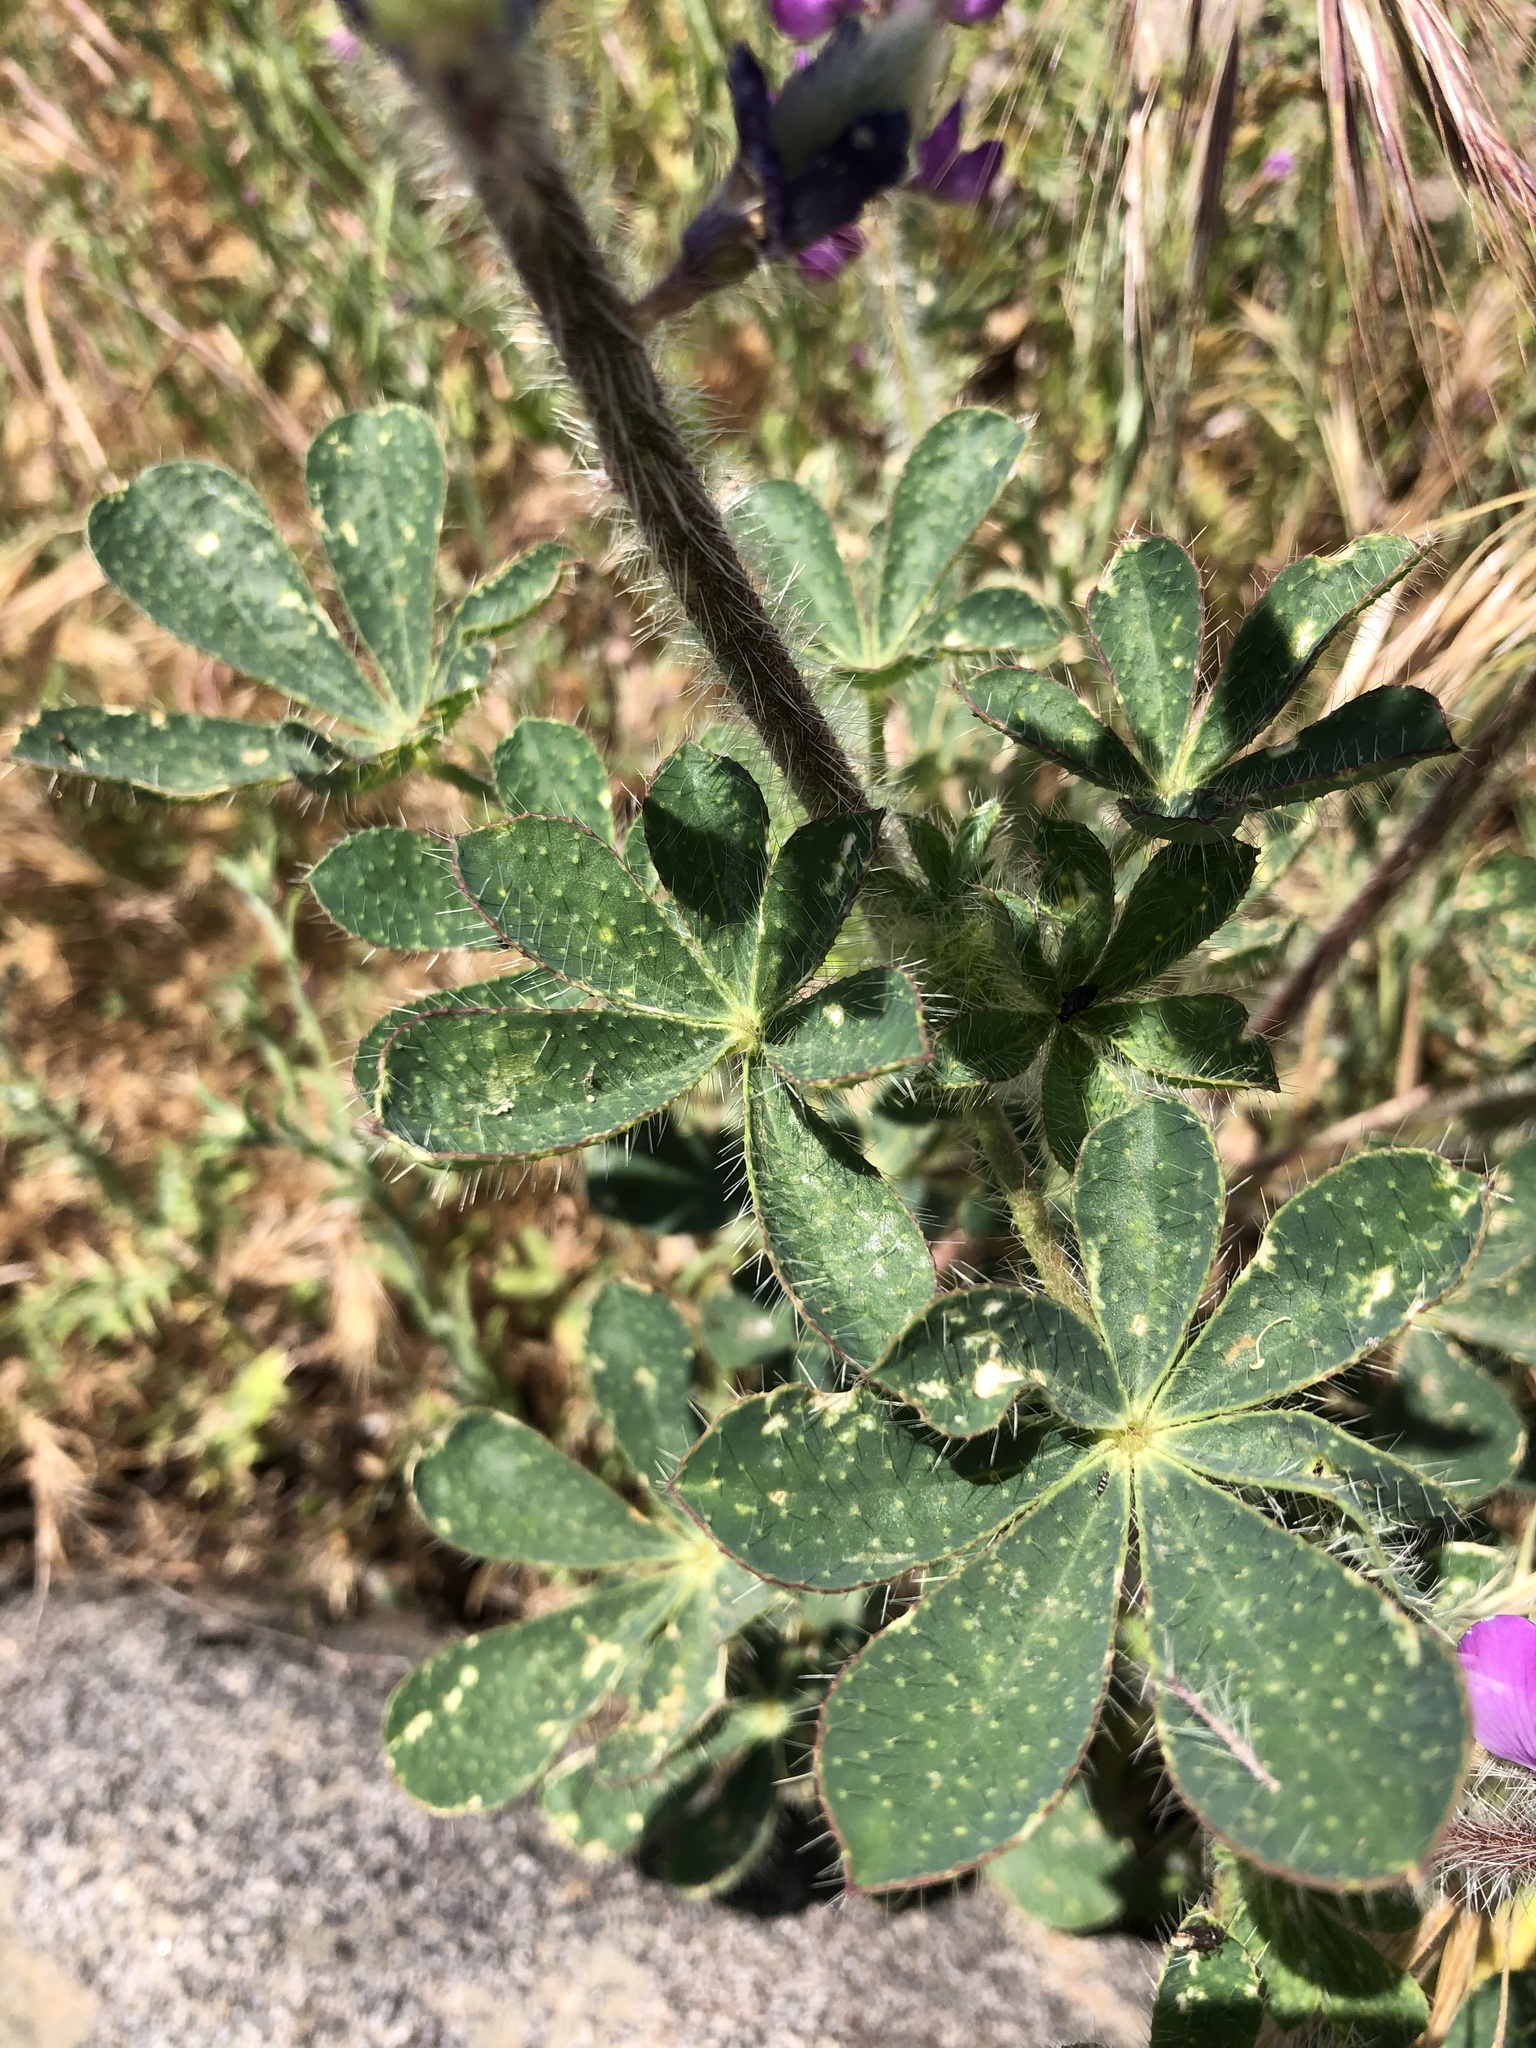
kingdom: Plantae
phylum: Tracheophyta
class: Magnoliopsida
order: Fabales
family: Fabaceae
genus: Lupinus
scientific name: Lupinus hirsutissimus
